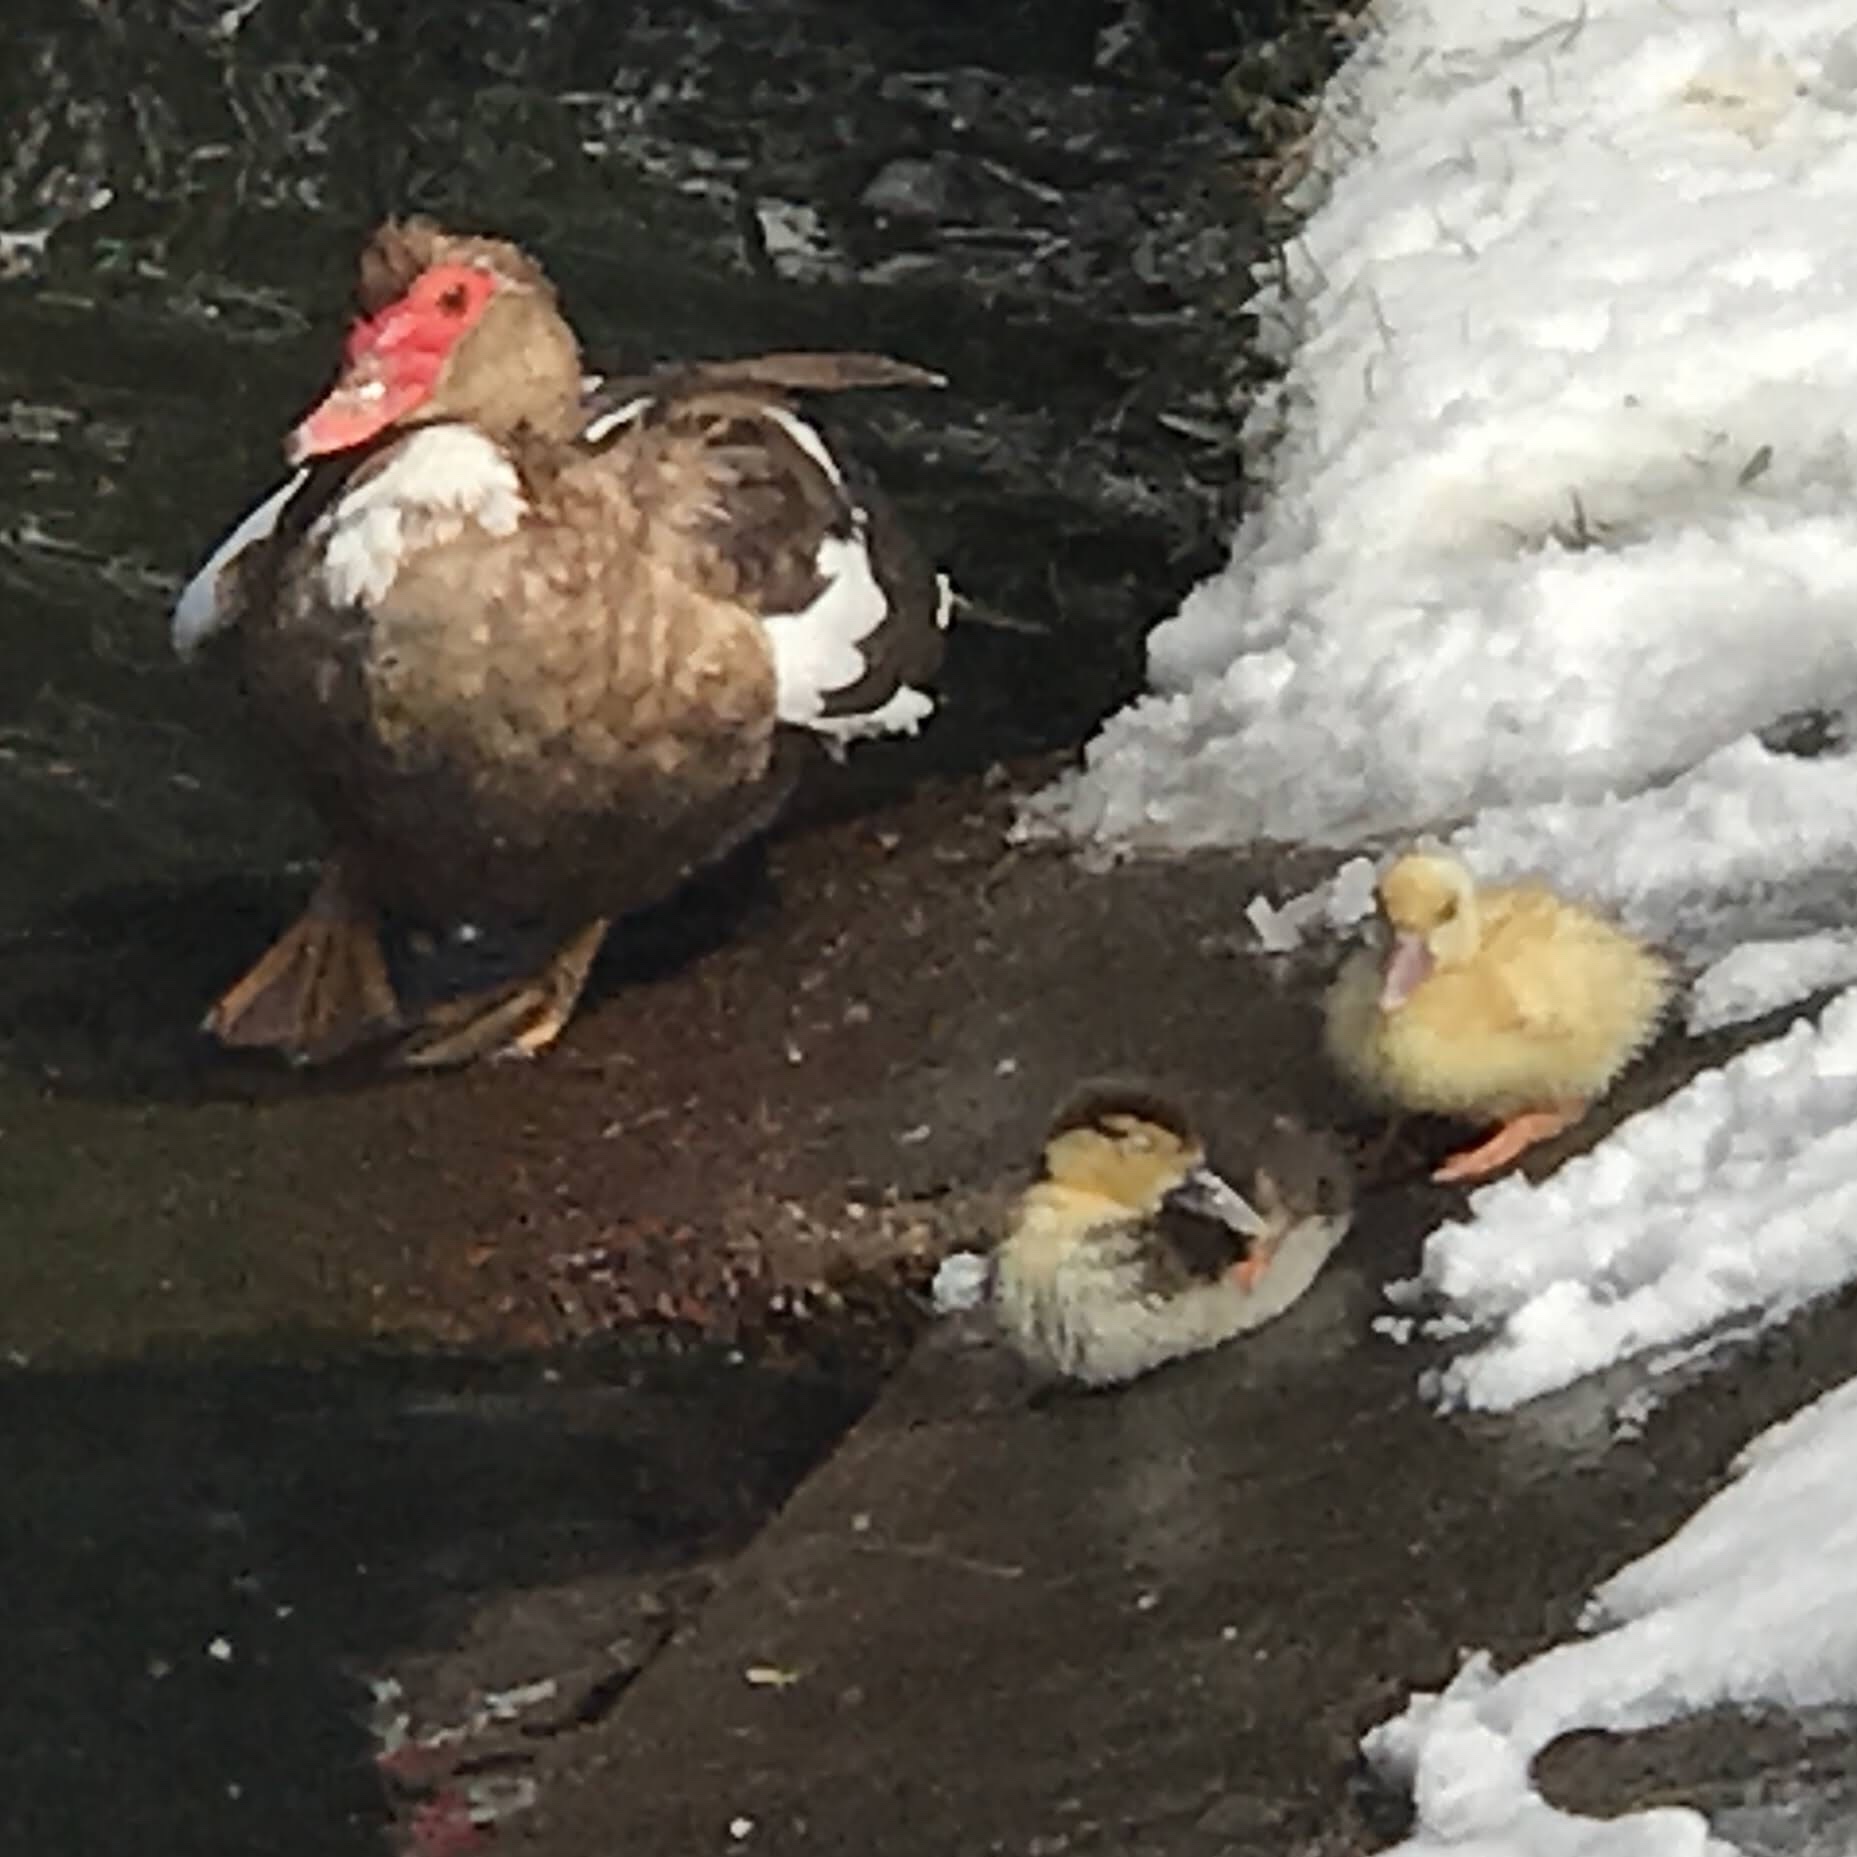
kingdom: Animalia
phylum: Chordata
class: Aves
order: Anseriformes
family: Anatidae
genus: Cairina
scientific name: Cairina moschata
